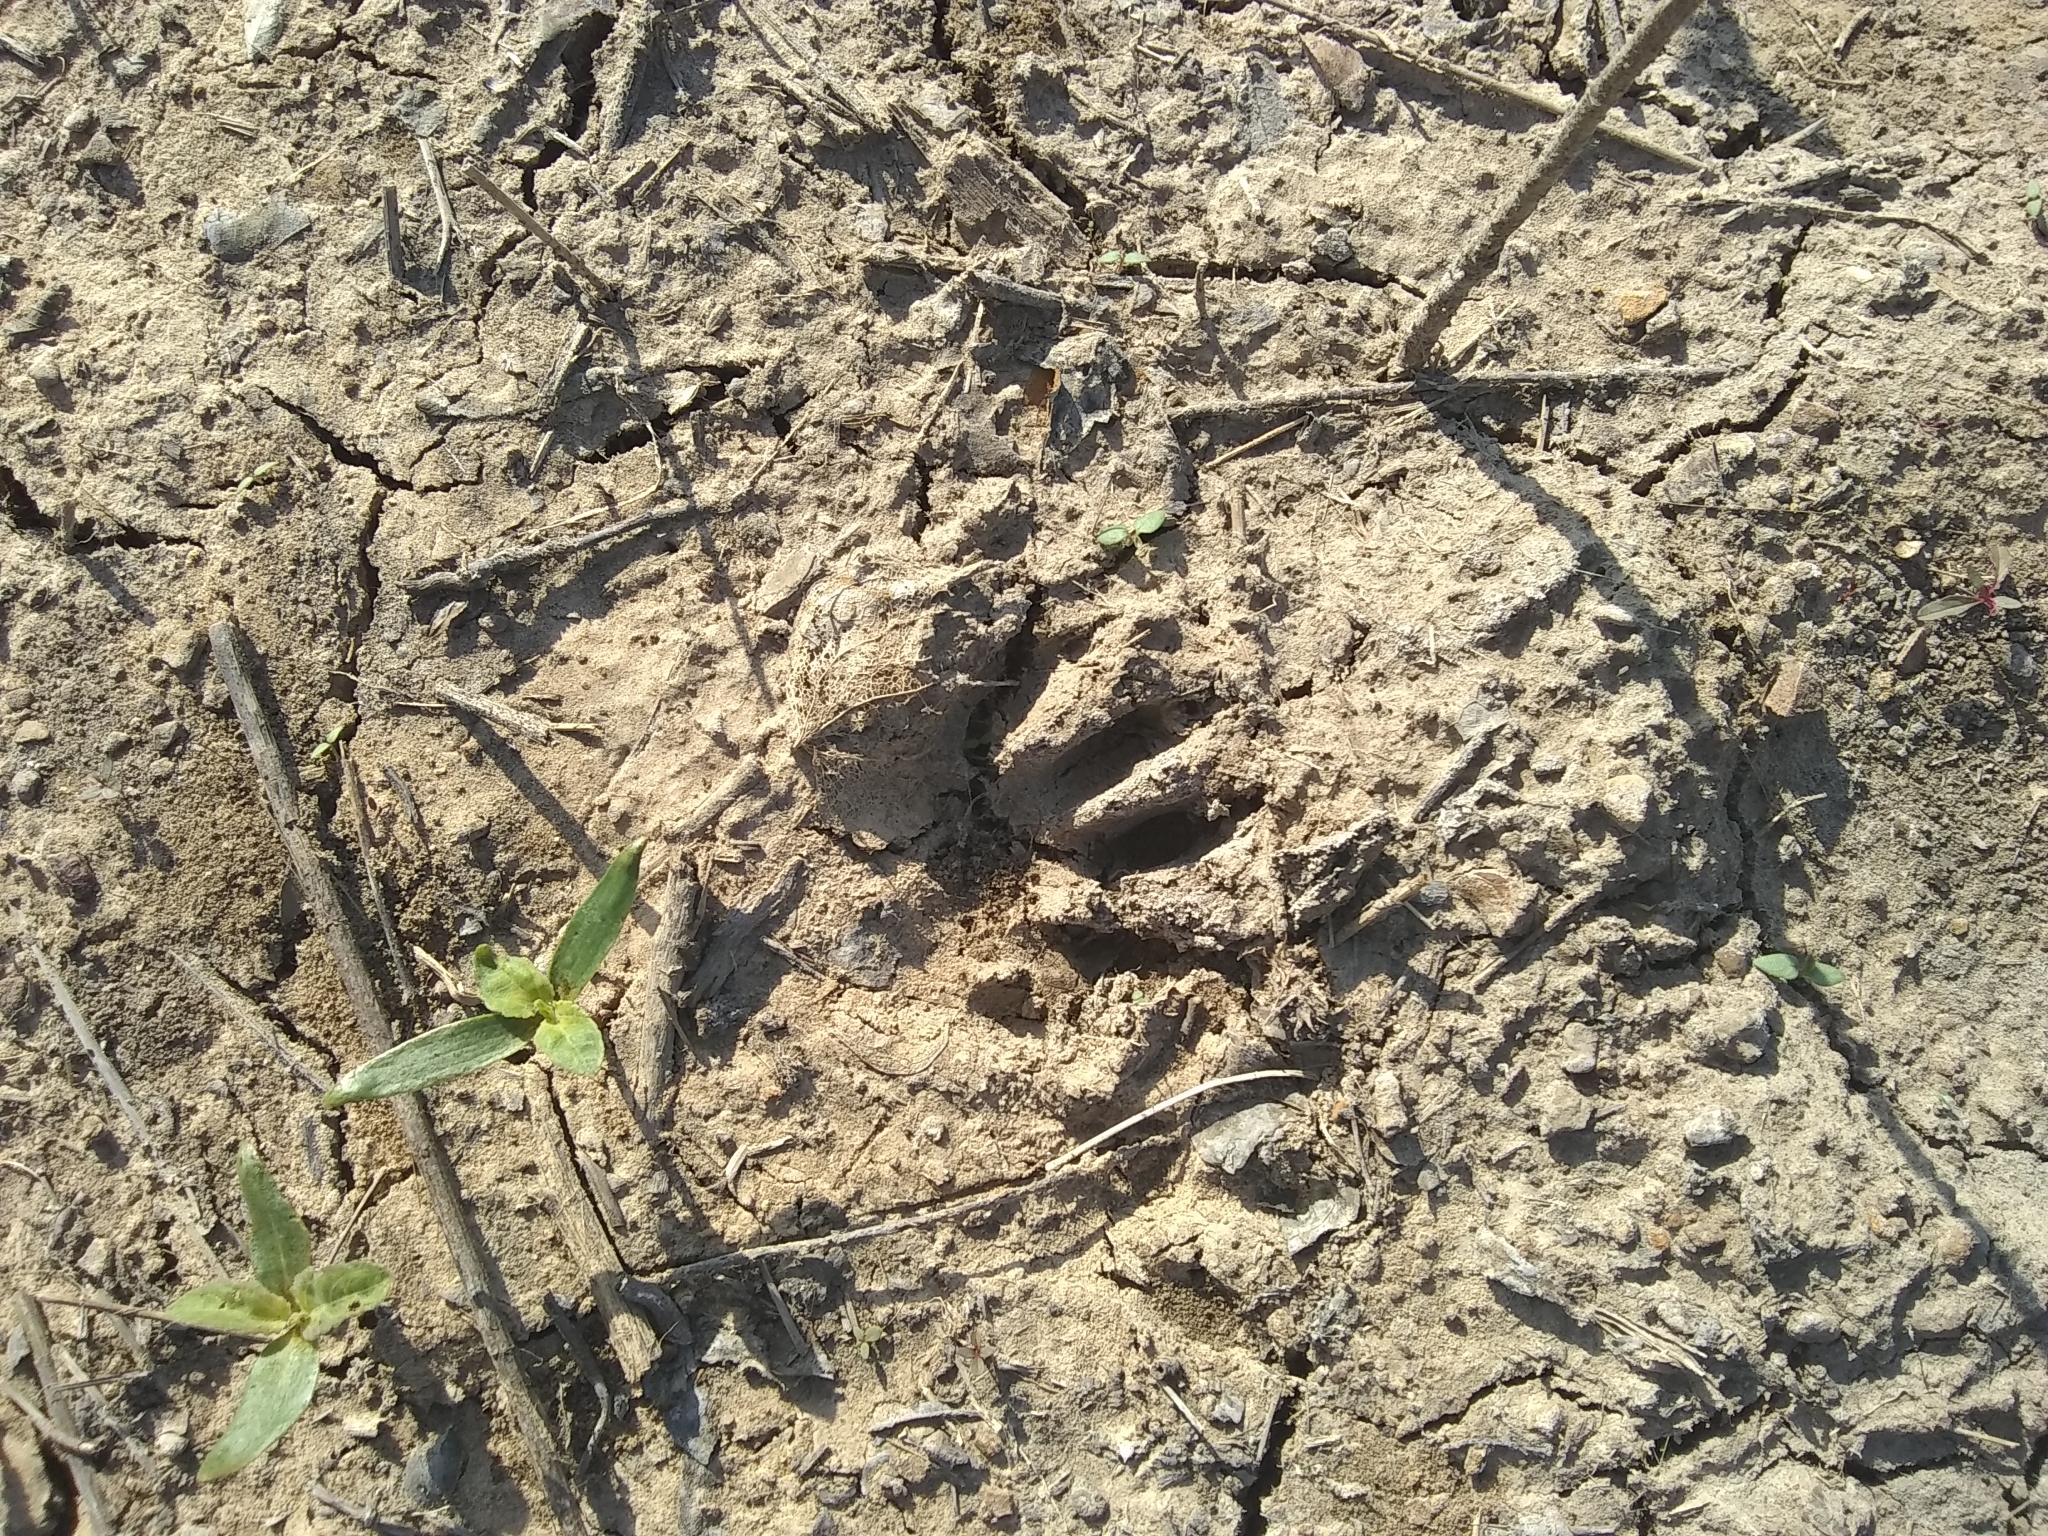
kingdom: Animalia
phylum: Chordata
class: Mammalia
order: Carnivora
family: Procyonidae
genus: Procyon
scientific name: Procyon lotor
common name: Raccoon
